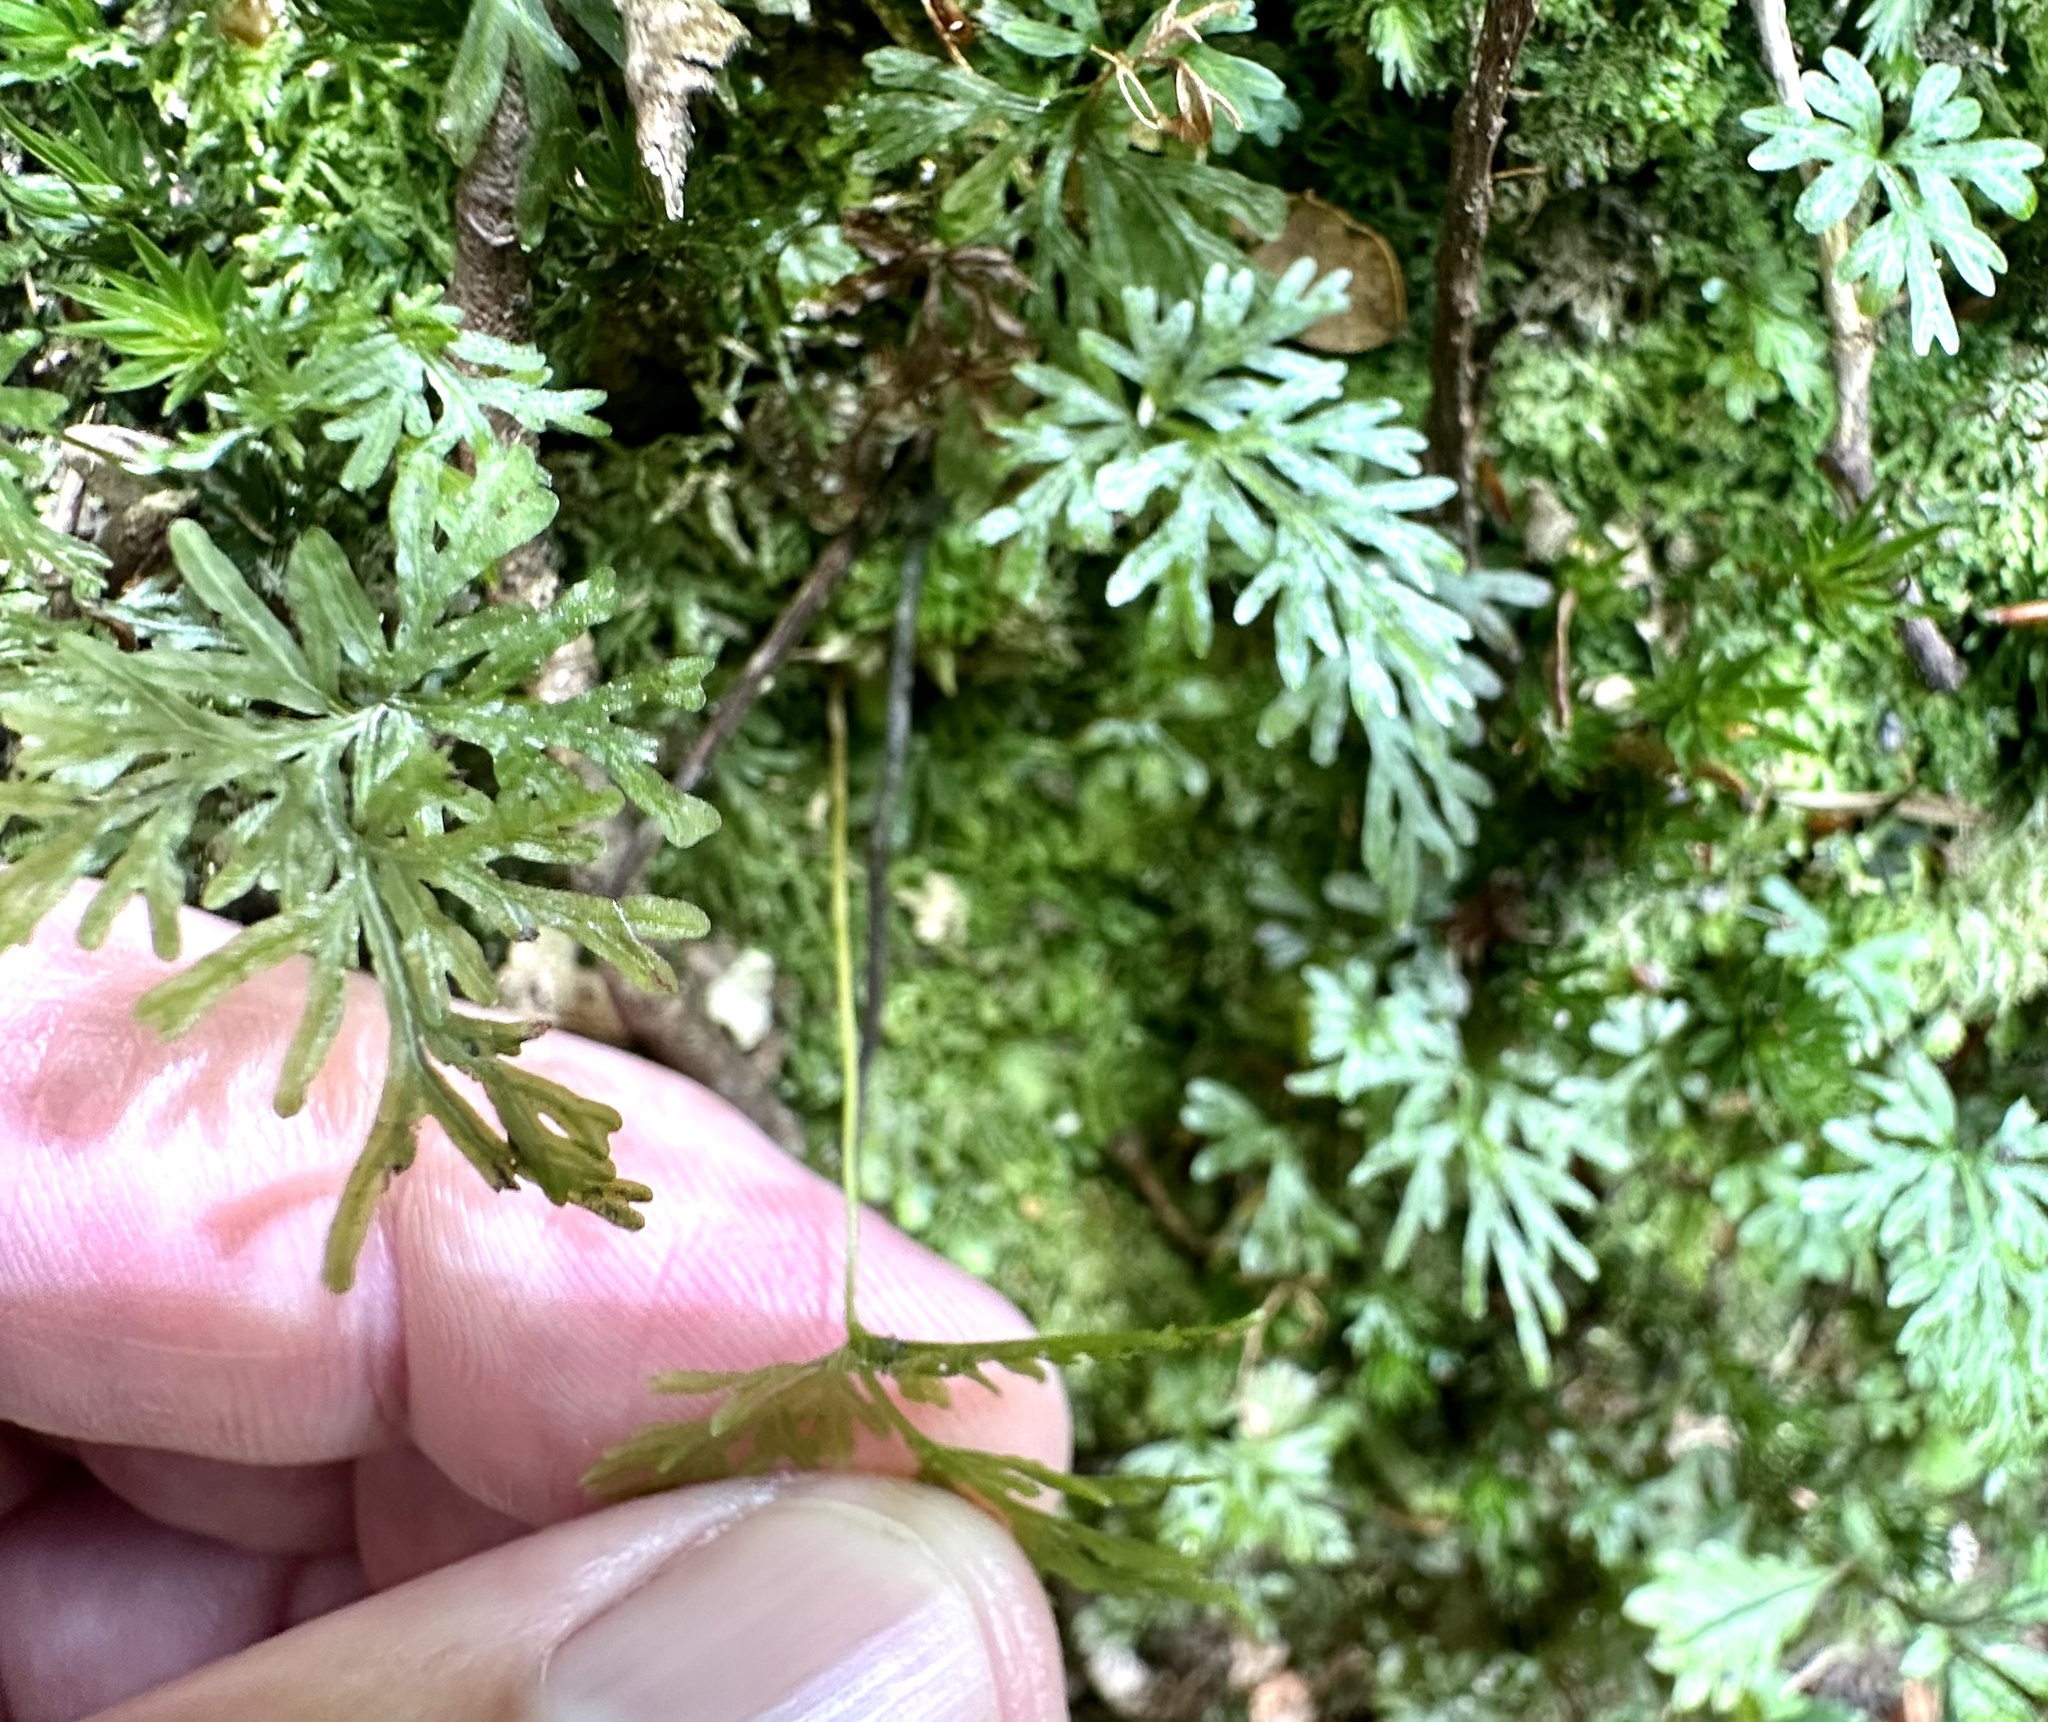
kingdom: Plantae
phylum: Tracheophyta
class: Polypodiopsida
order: Osmundales
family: Osmundaceae
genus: Leptopteris
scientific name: Leptopteris hymenophylloides
